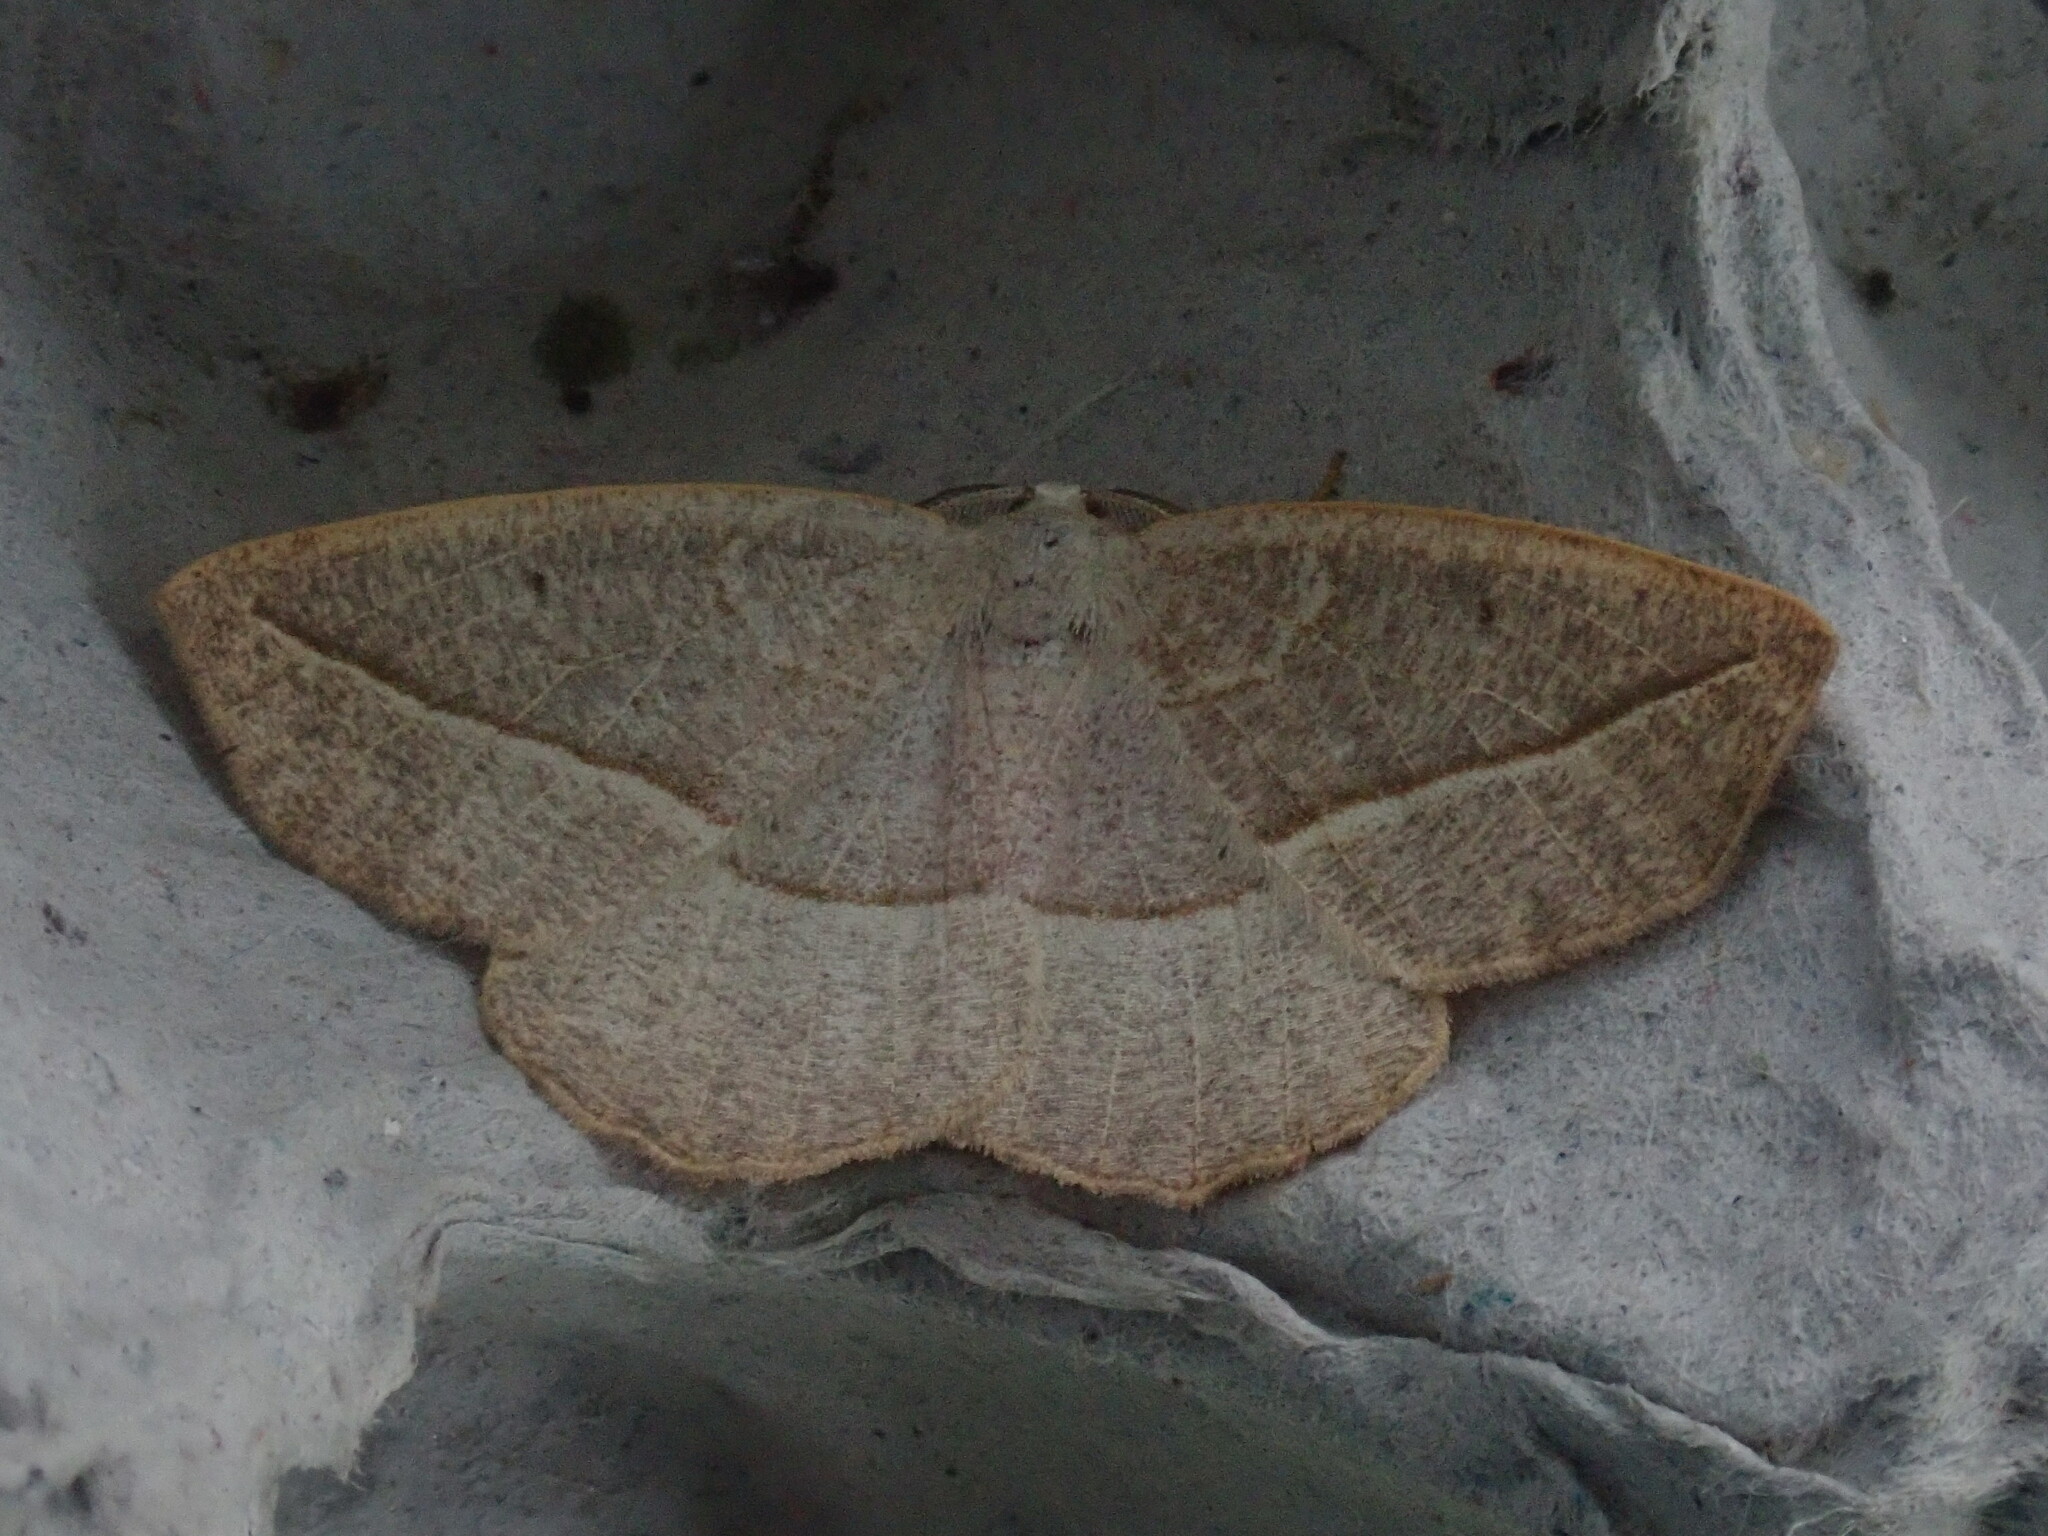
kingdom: Animalia
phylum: Arthropoda
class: Insecta
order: Lepidoptera
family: Geometridae
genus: Eusarca
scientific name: Eusarca confusaria
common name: Confused eusarca
